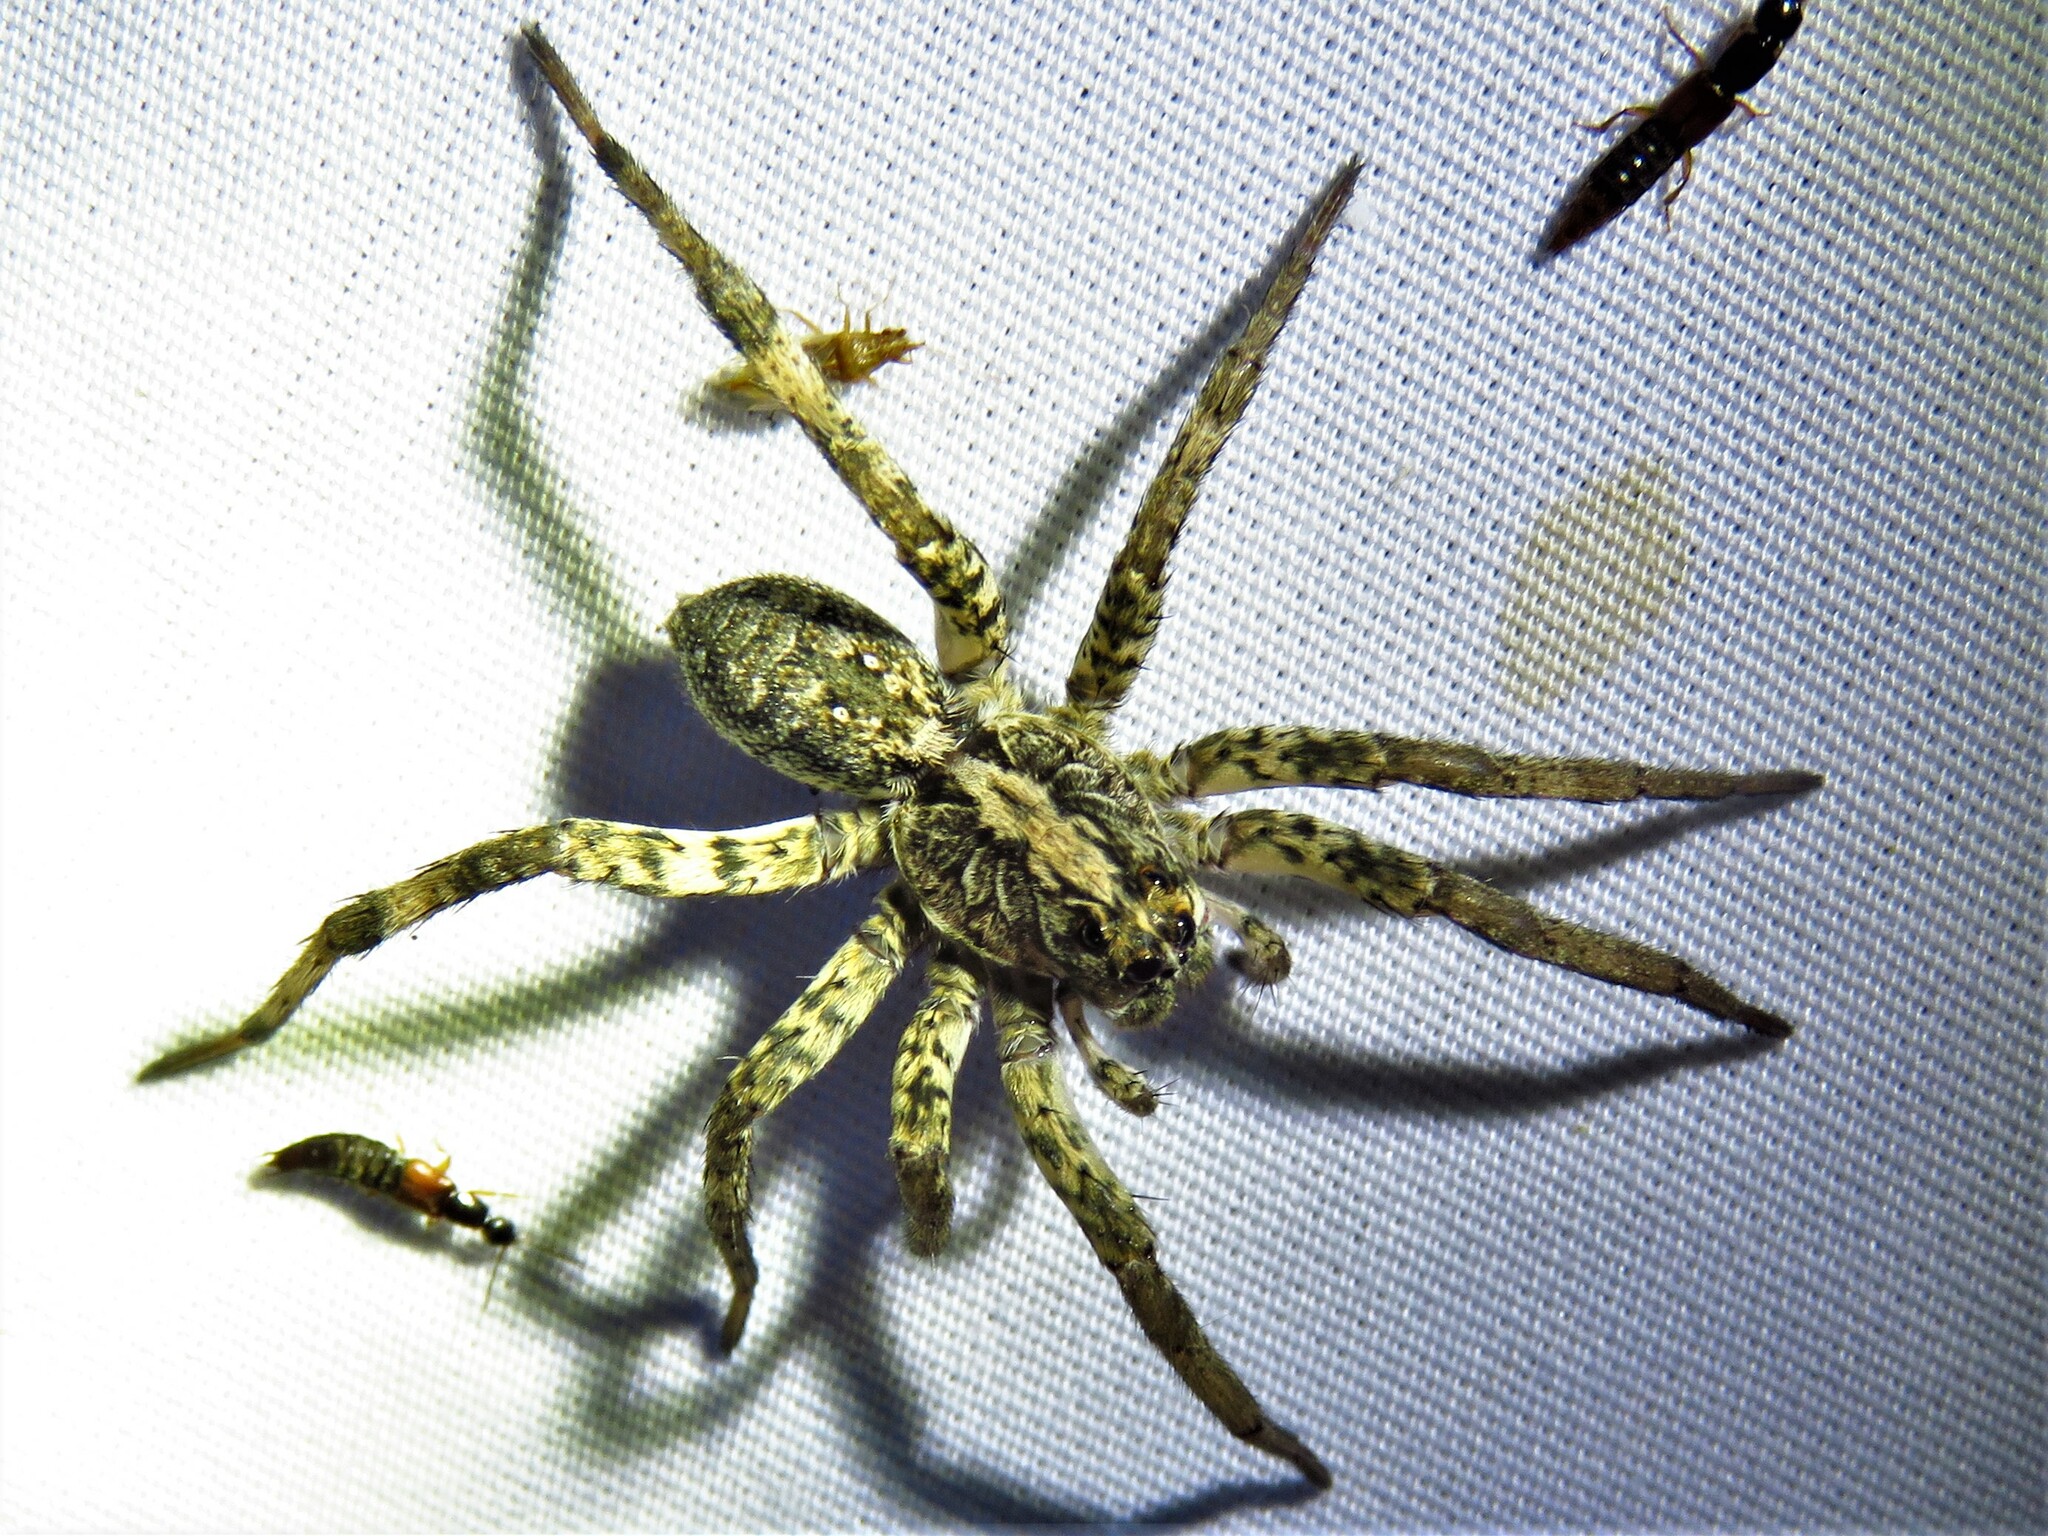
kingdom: Animalia
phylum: Arthropoda
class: Arachnida
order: Araneae
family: Lycosidae
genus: Hogna
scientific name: Hogna antelucana
